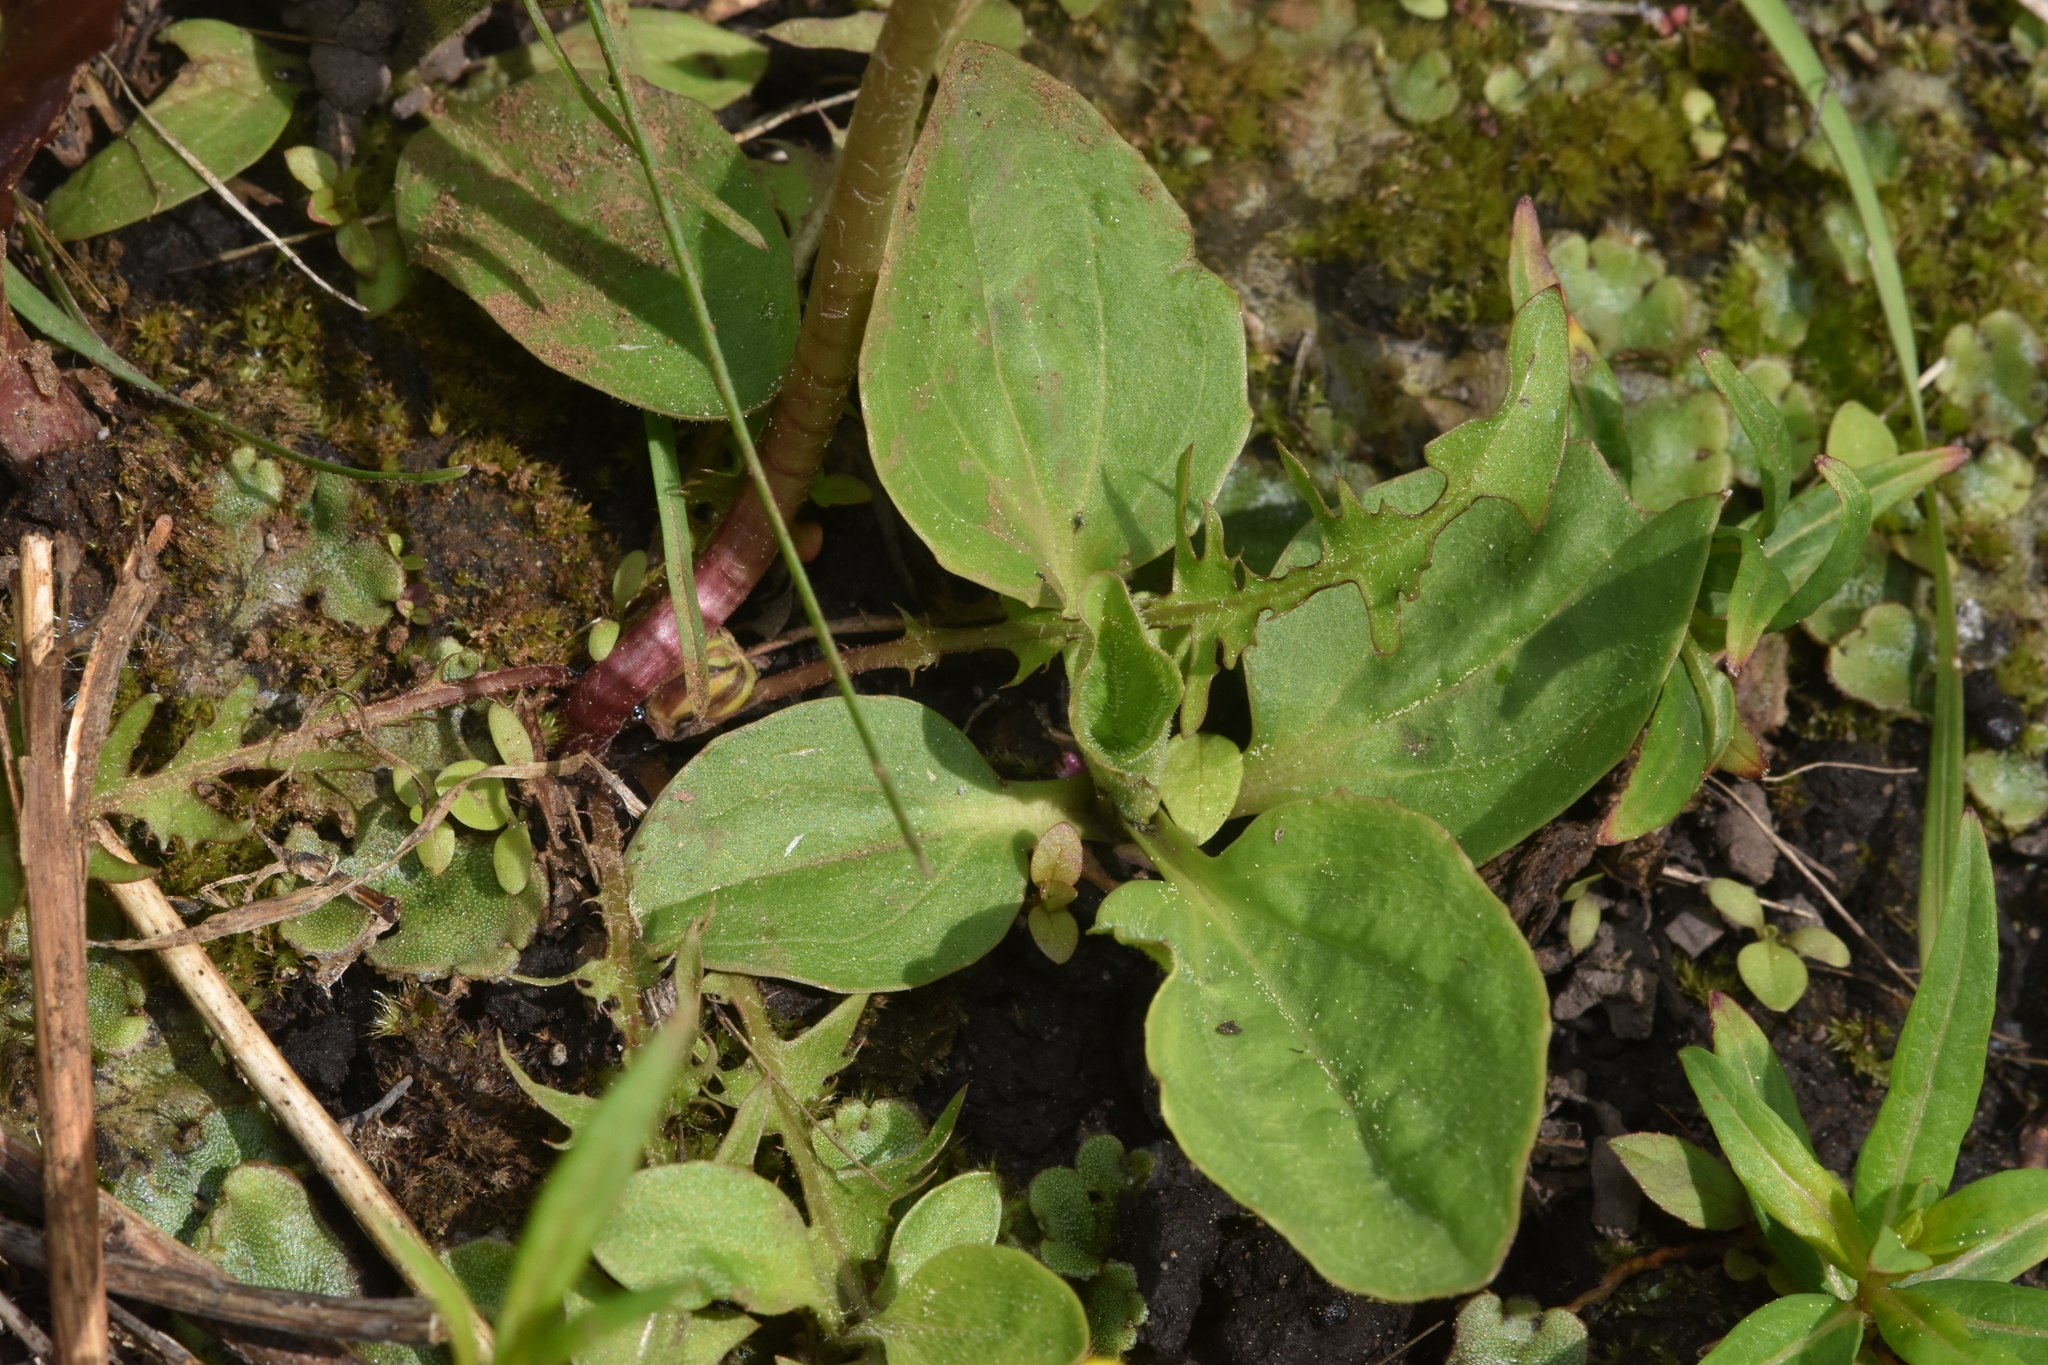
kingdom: Plantae
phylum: Tracheophyta
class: Magnoliopsida
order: Lamiales
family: Plantaginaceae
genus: Plantago
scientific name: Plantago major
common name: Common plantain
